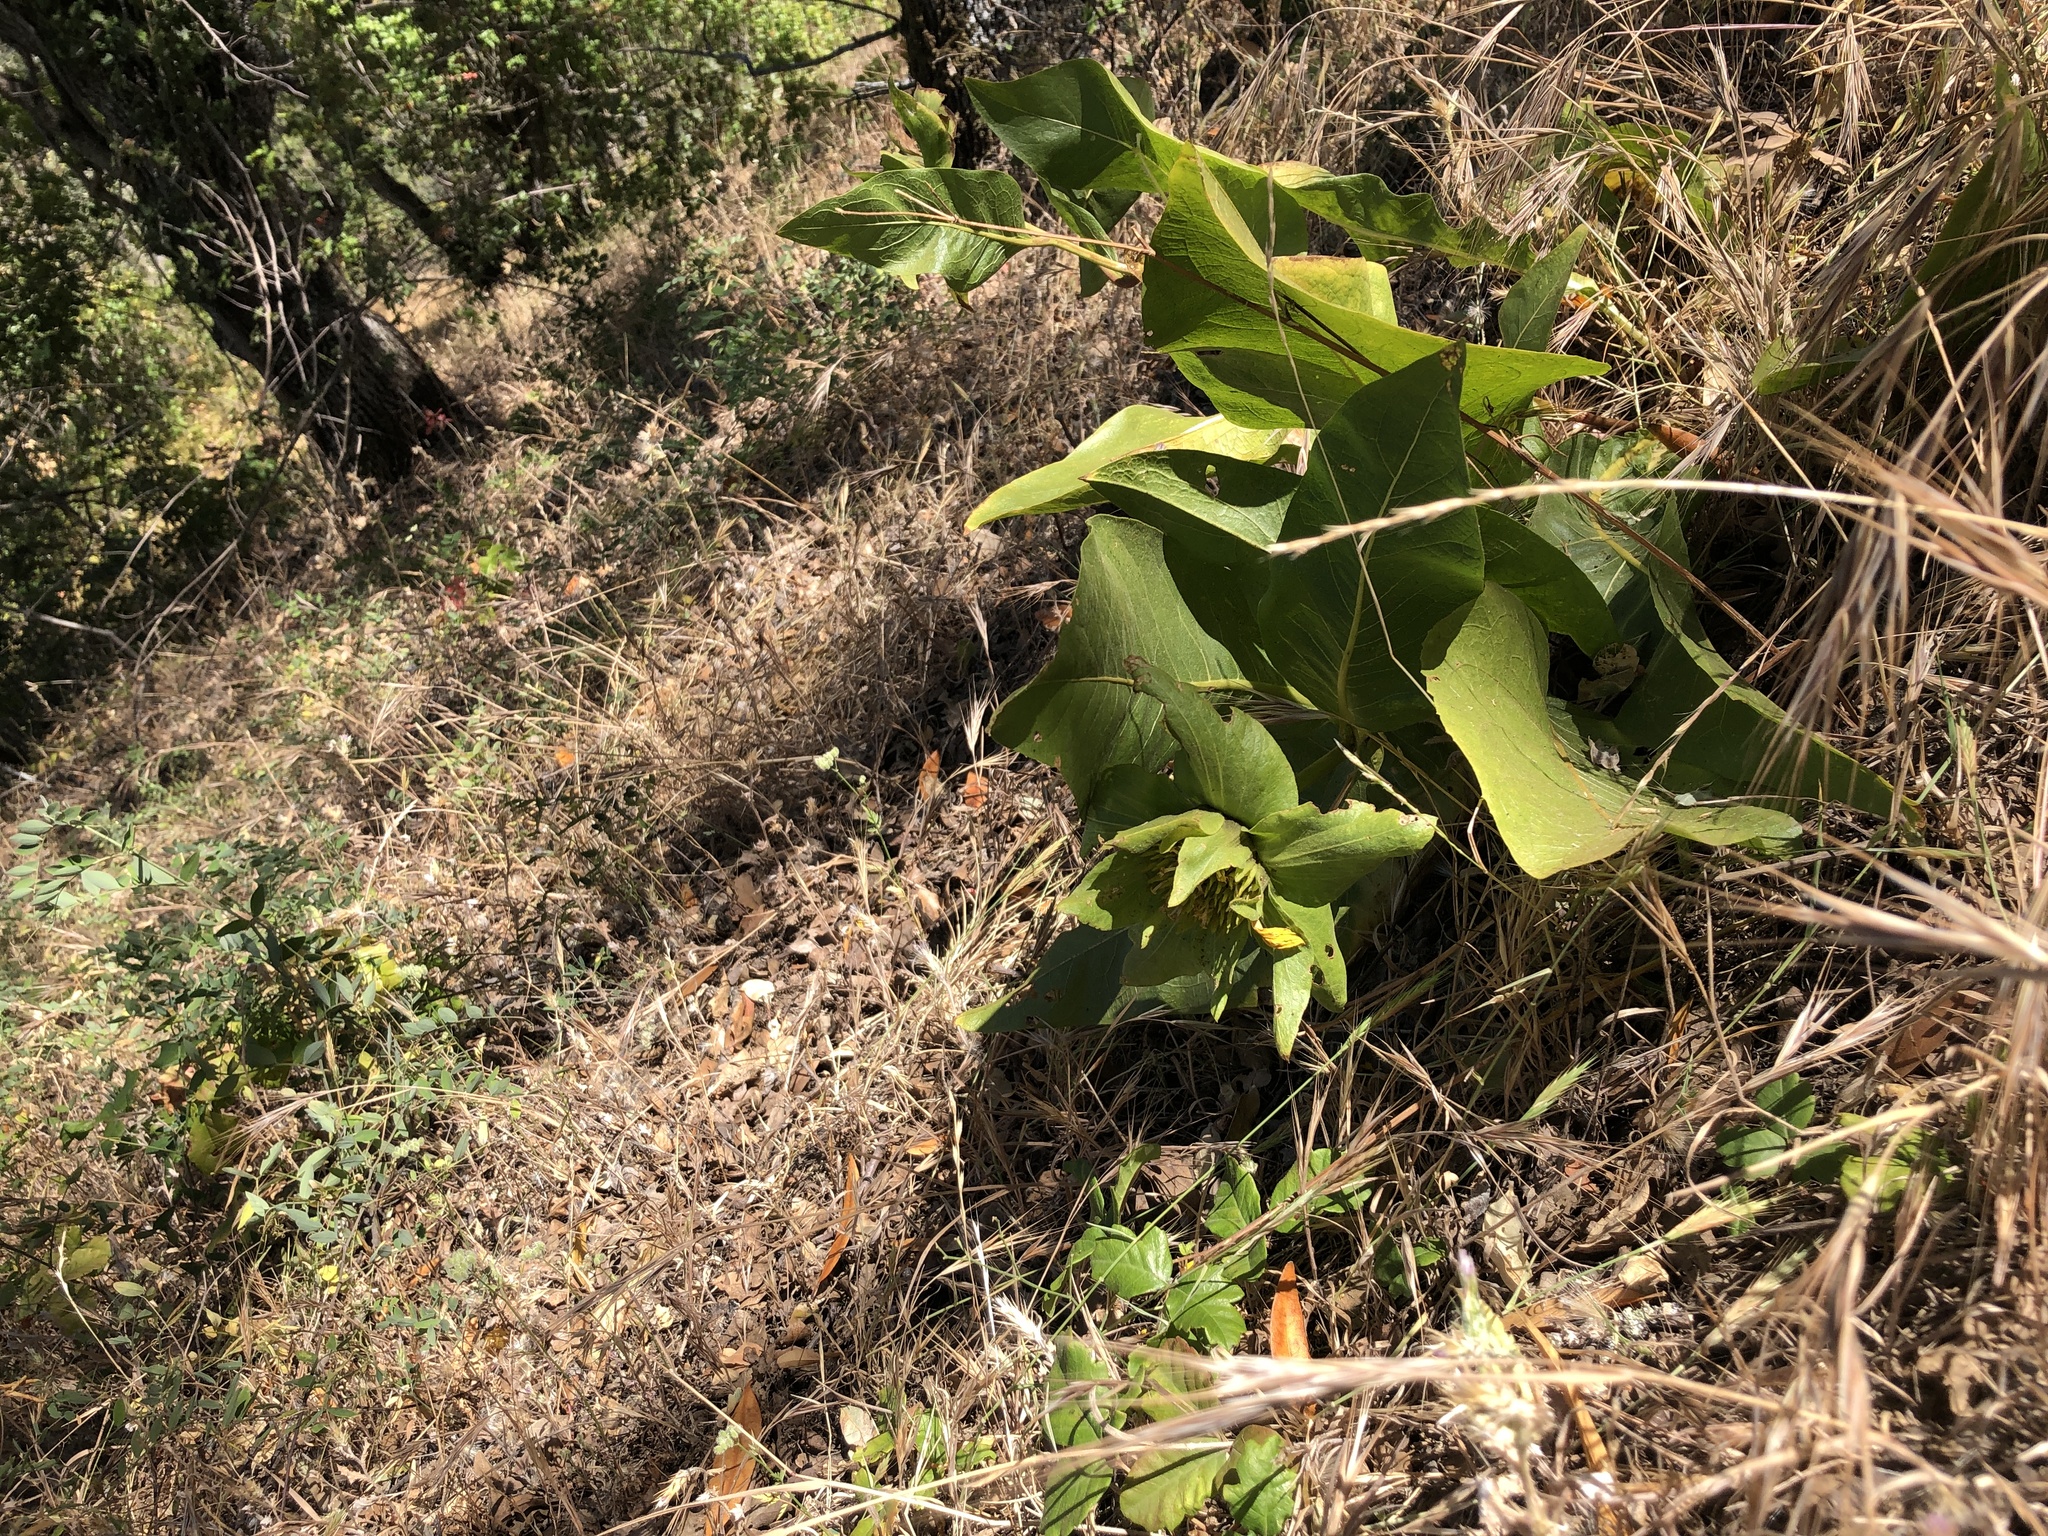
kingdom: Plantae
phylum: Tracheophyta
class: Magnoliopsida
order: Asterales
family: Asteraceae
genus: Wyethia
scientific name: Wyethia glabra
